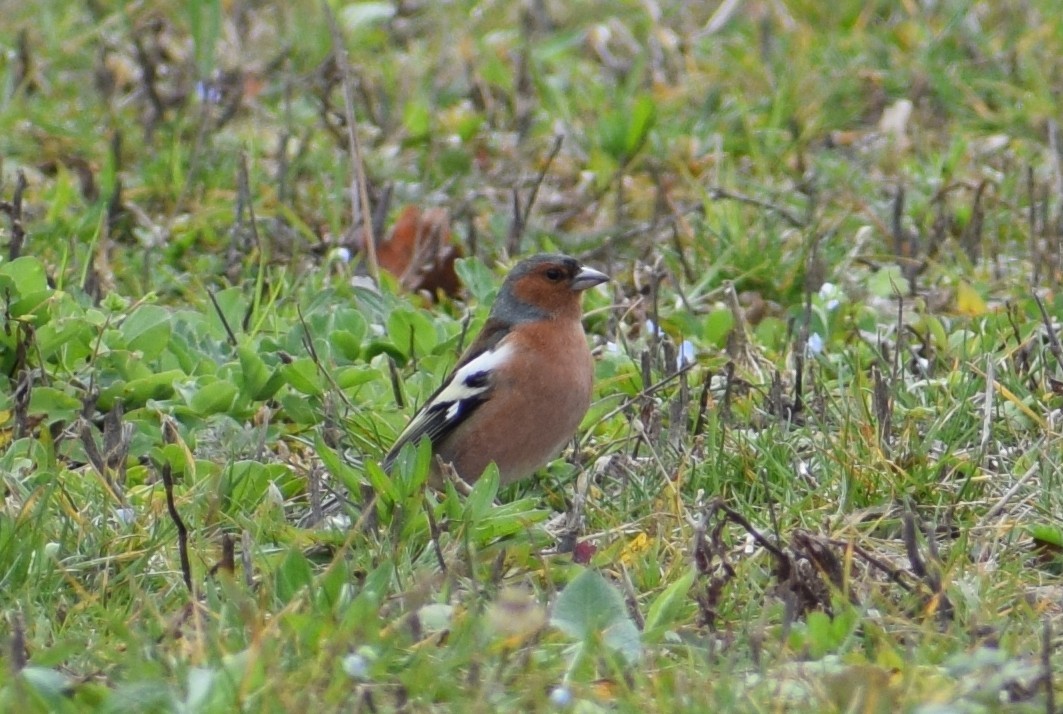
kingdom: Animalia
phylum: Chordata
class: Aves
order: Passeriformes
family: Fringillidae
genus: Fringilla
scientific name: Fringilla coelebs
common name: Common chaffinch
